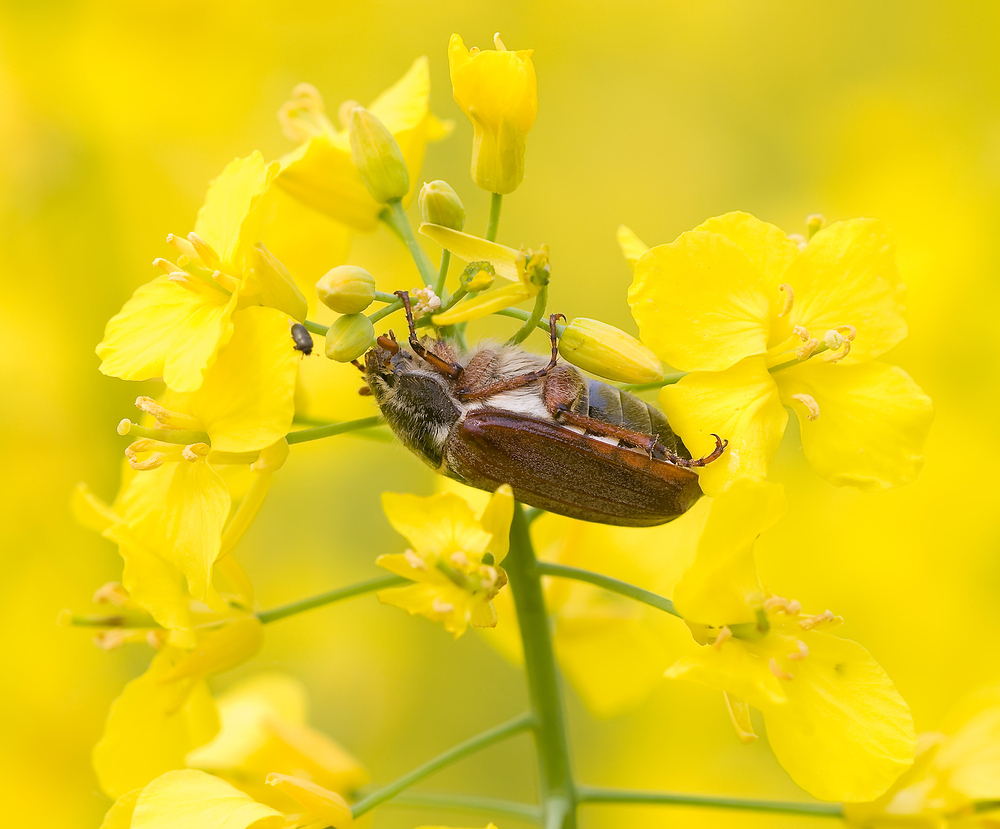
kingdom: Animalia
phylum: Arthropoda
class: Insecta
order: Coleoptera
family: Scarabaeidae
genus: Melolontha
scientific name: Melolontha melolontha
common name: Cockchafer maybeetle
